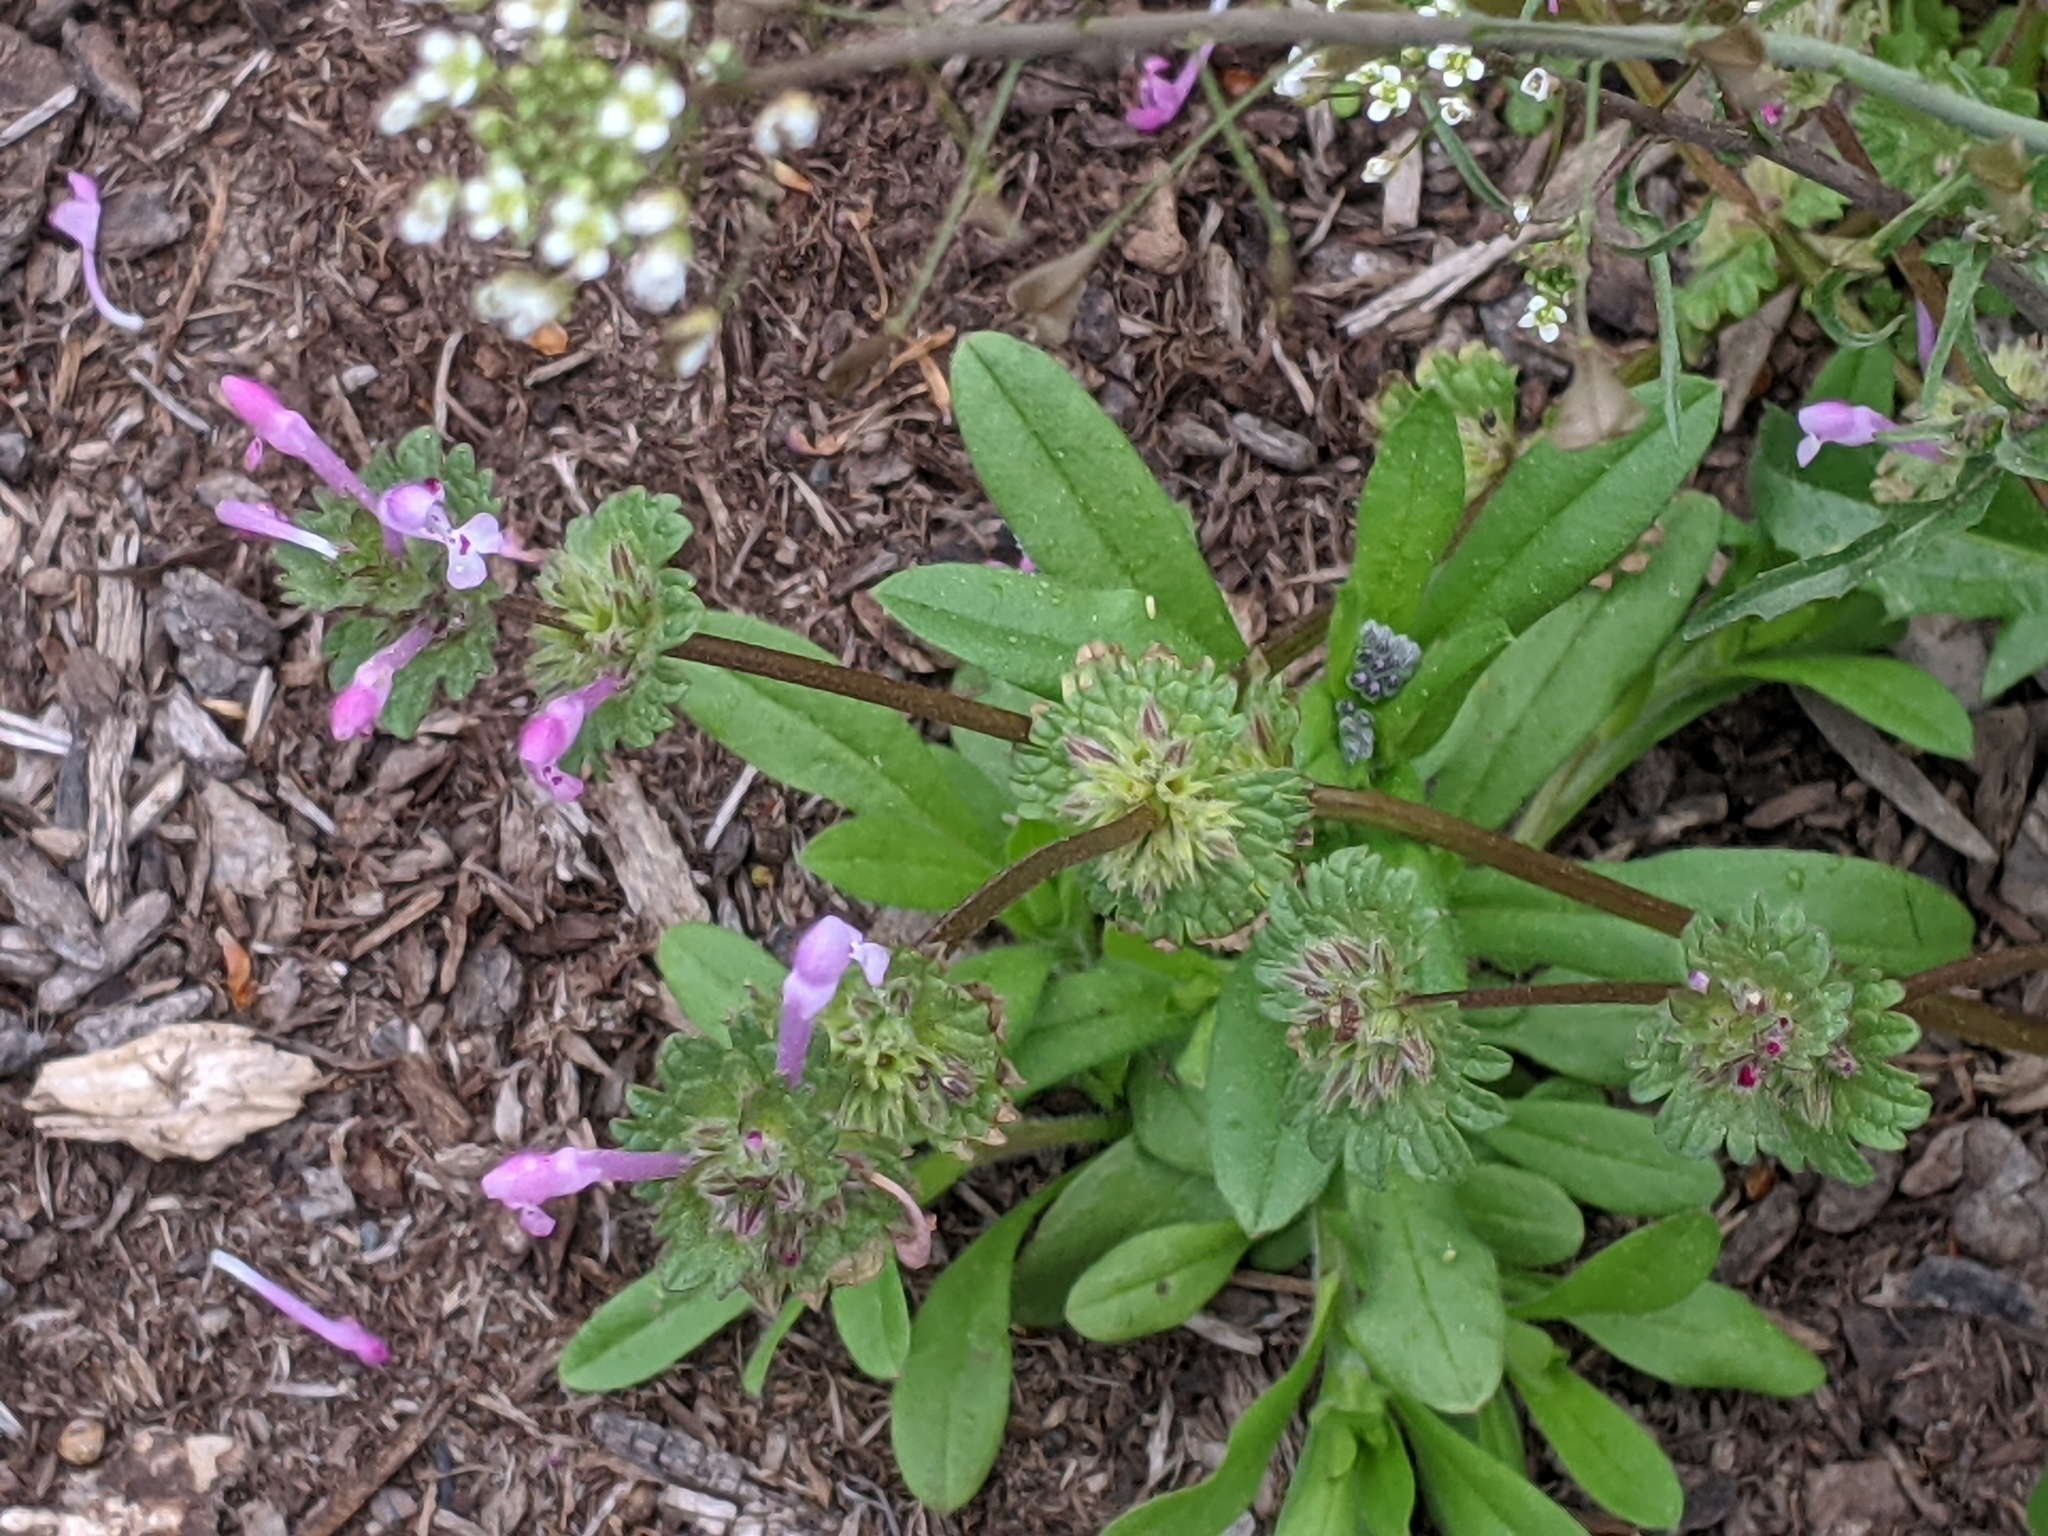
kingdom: Plantae
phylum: Tracheophyta
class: Magnoliopsida
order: Lamiales
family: Lamiaceae
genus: Lamium
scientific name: Lamium amplexicaule
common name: Henbit dead-nettle
